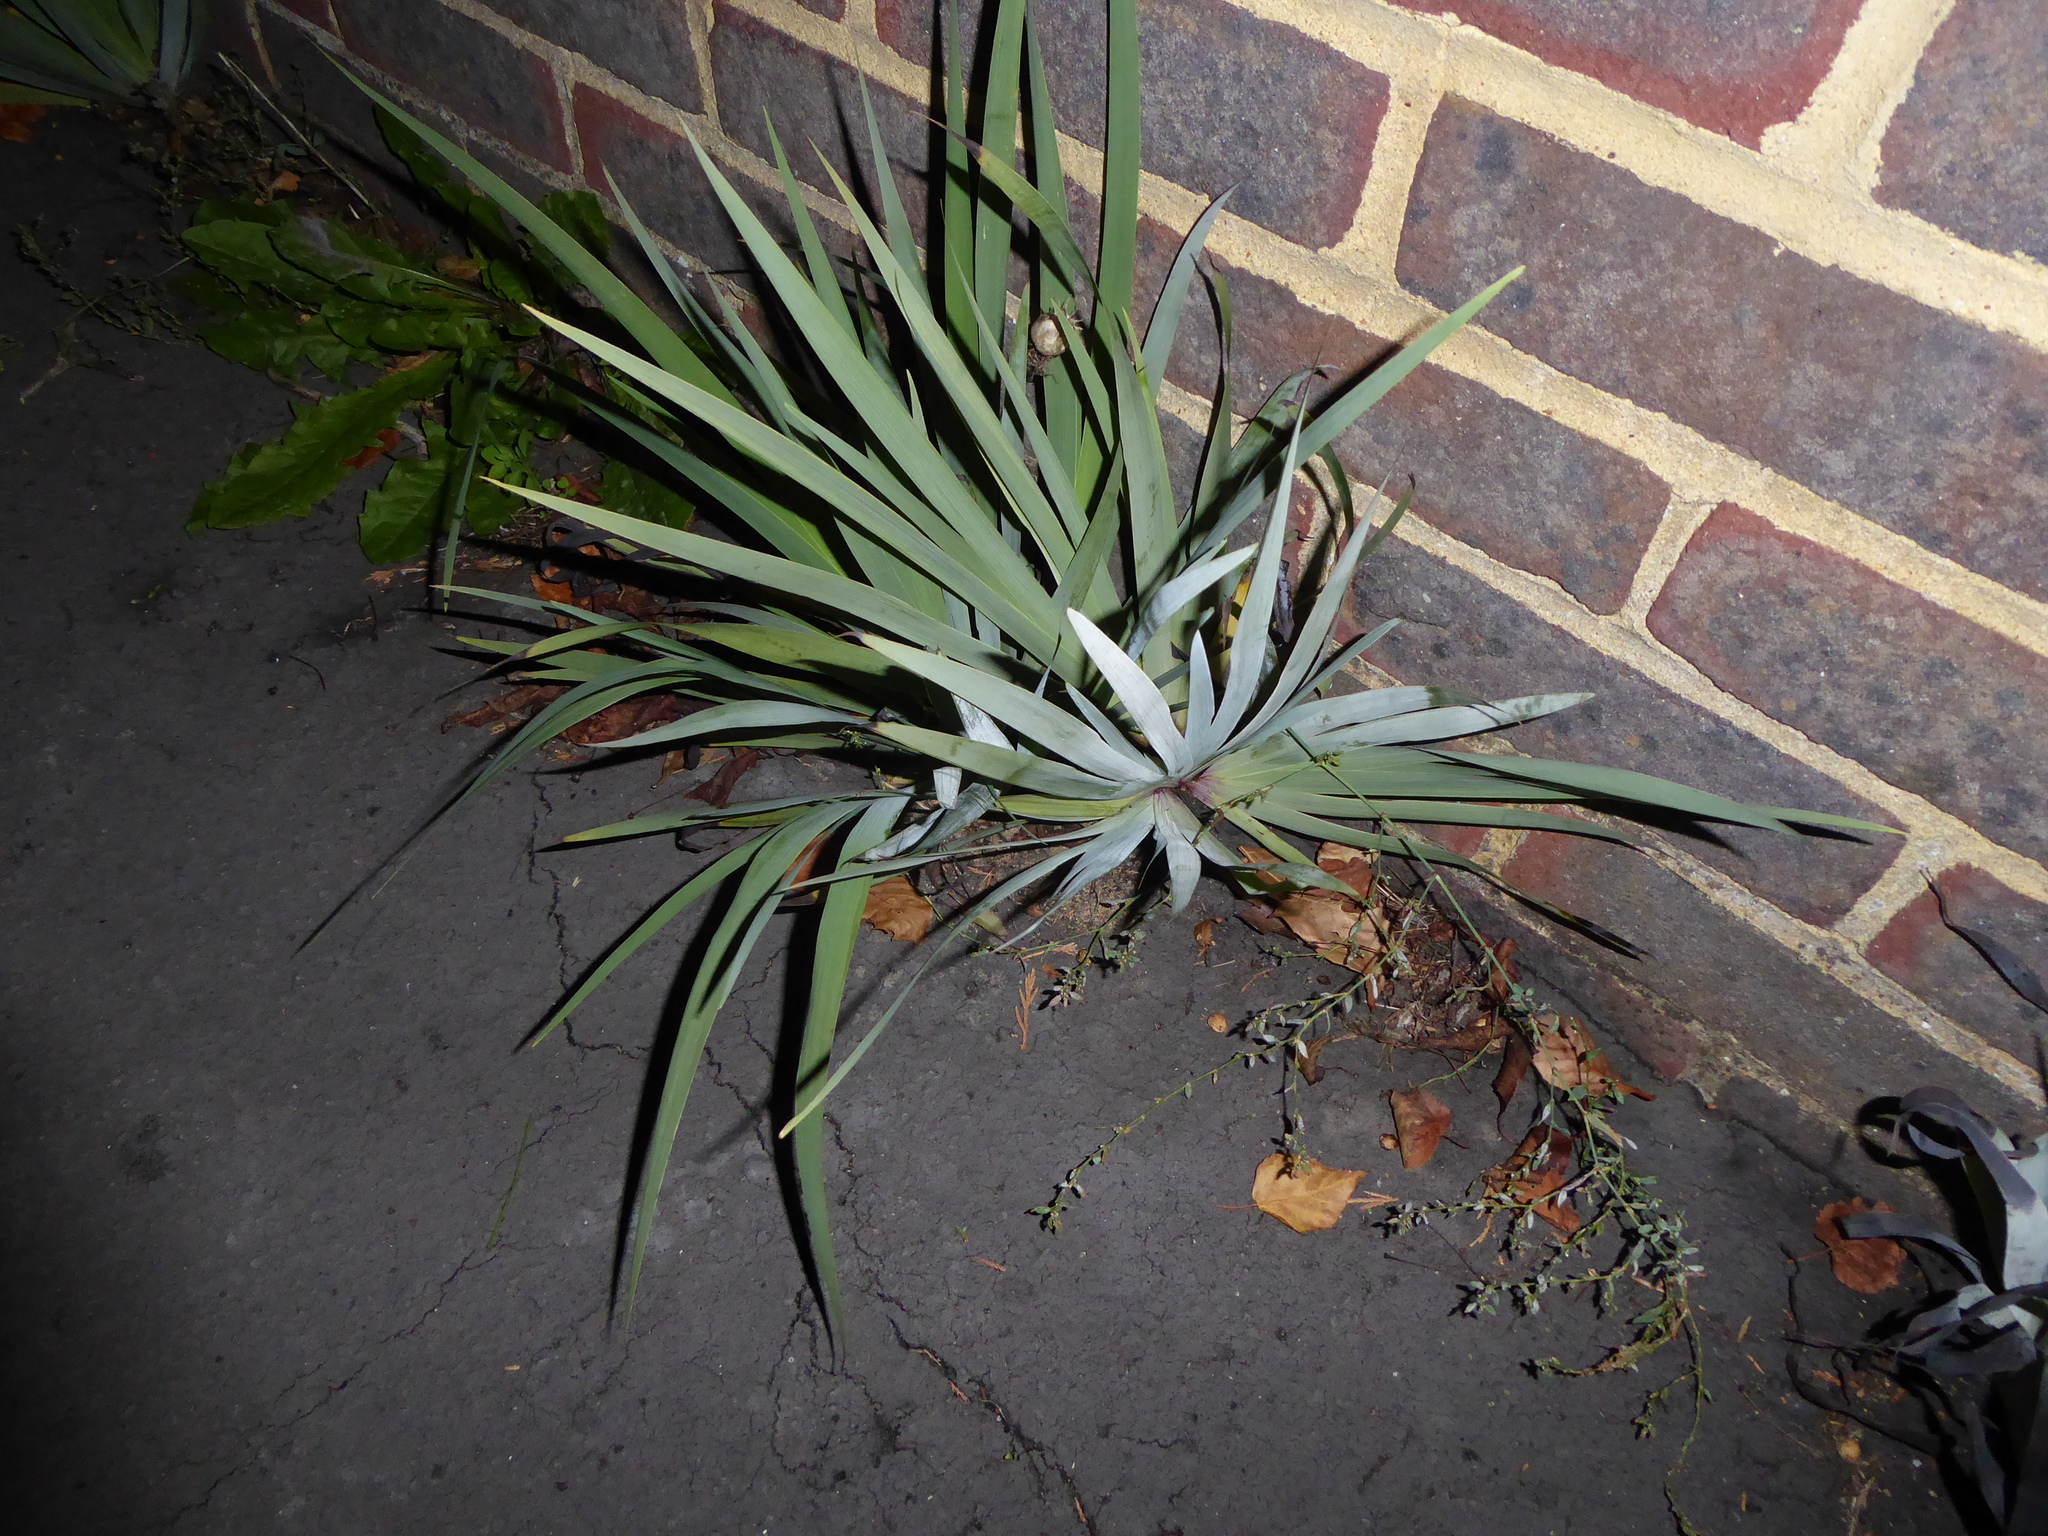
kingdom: Plantae
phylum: Tracheophyta
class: Liliopsida
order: Asparagales
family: Iridaceae
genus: Sisyrinchium
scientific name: Sisyrinchium striatum
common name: Pale yellow-eyed-grass
